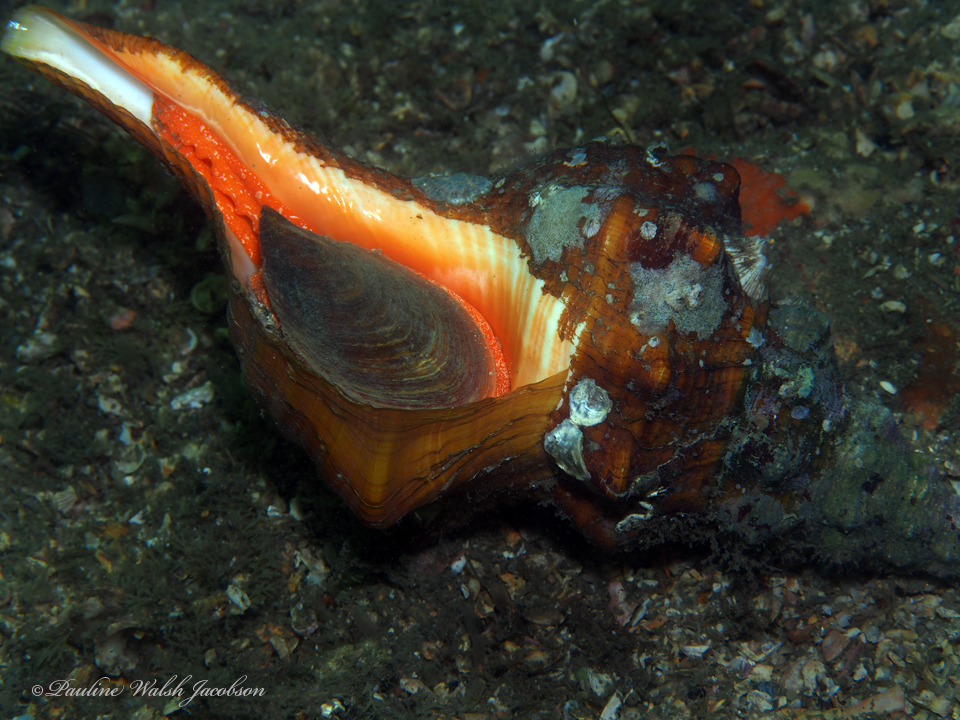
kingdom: Animalia
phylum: Mollusca
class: Gastropoda
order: Neogastropoda
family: Fasciolariidae
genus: Triplofusus
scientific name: Triplofusus giganteus
